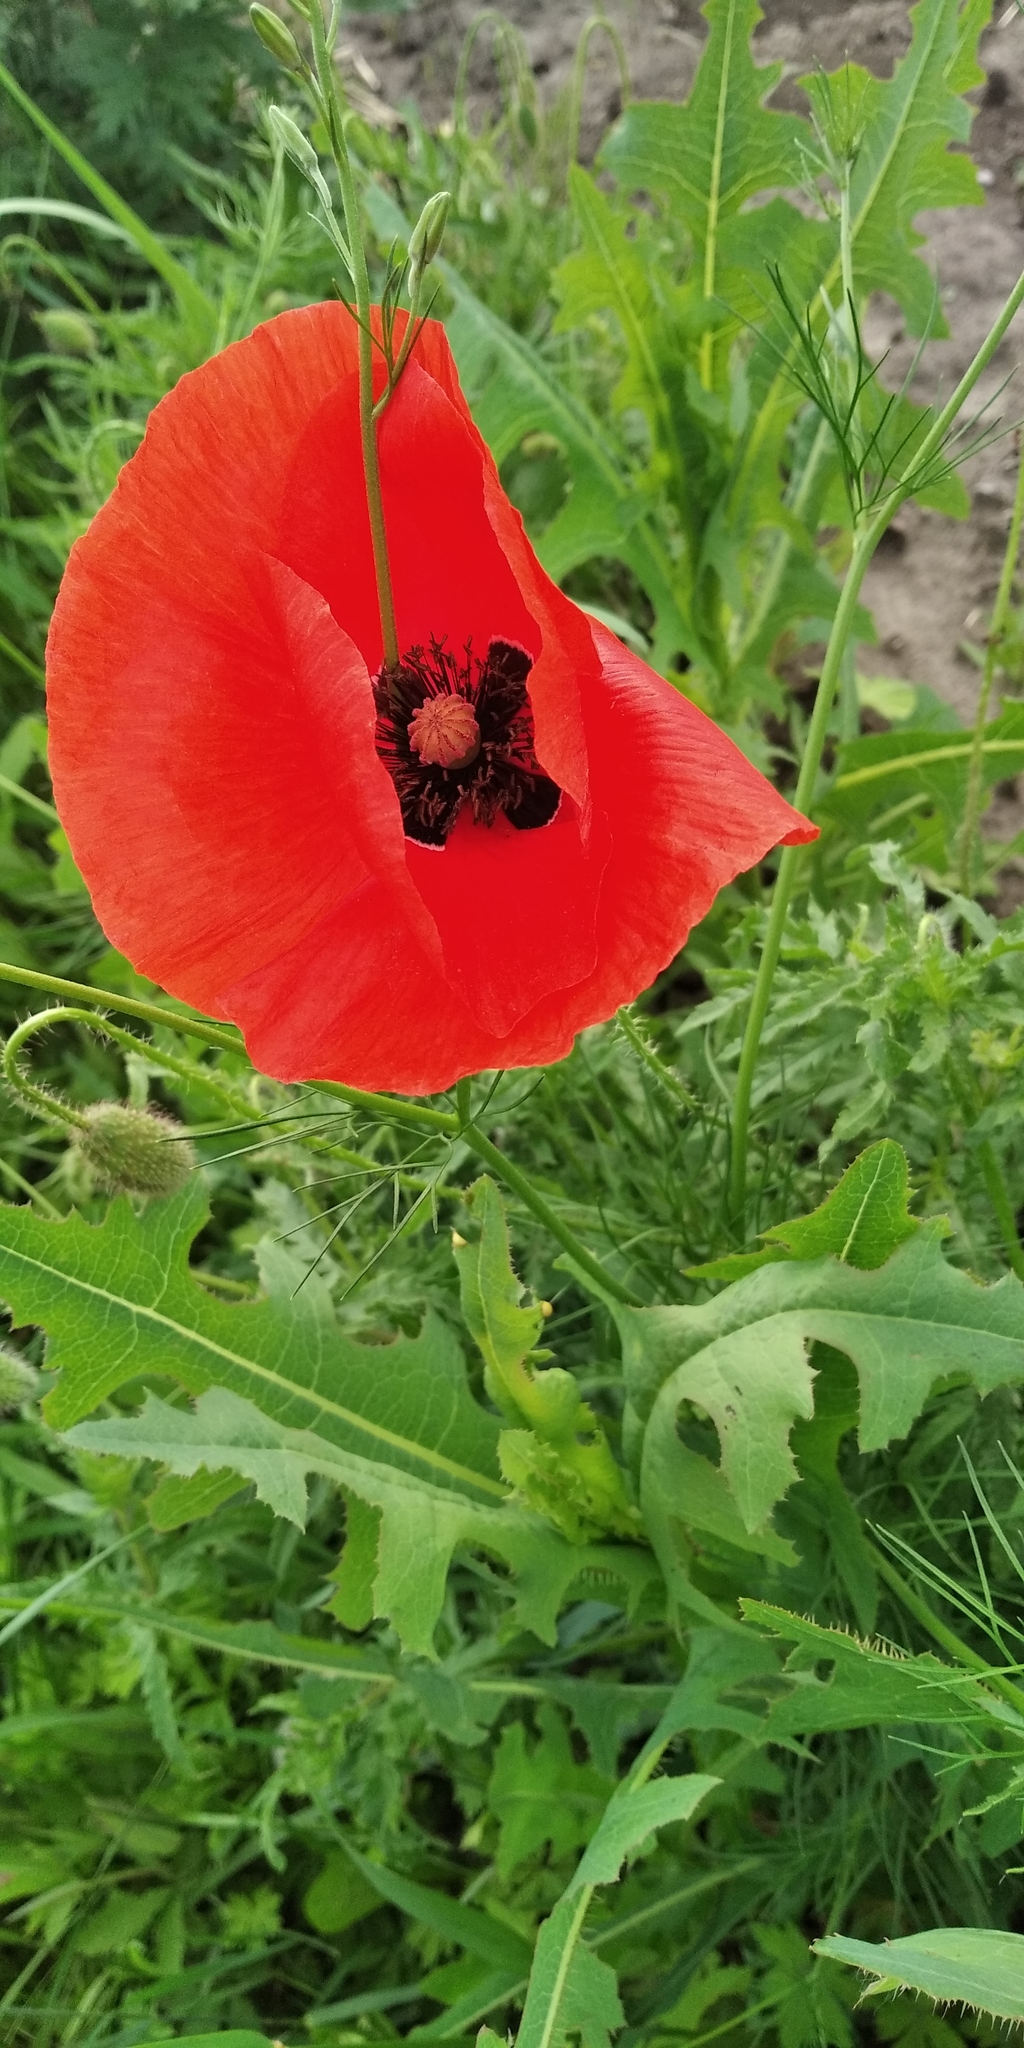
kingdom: Plantae
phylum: Tracheophyta
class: Magnoliopsida
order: Ranunculales
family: Papaveraceae
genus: Papaver
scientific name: Papaver rhoeas
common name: Corn poppy
